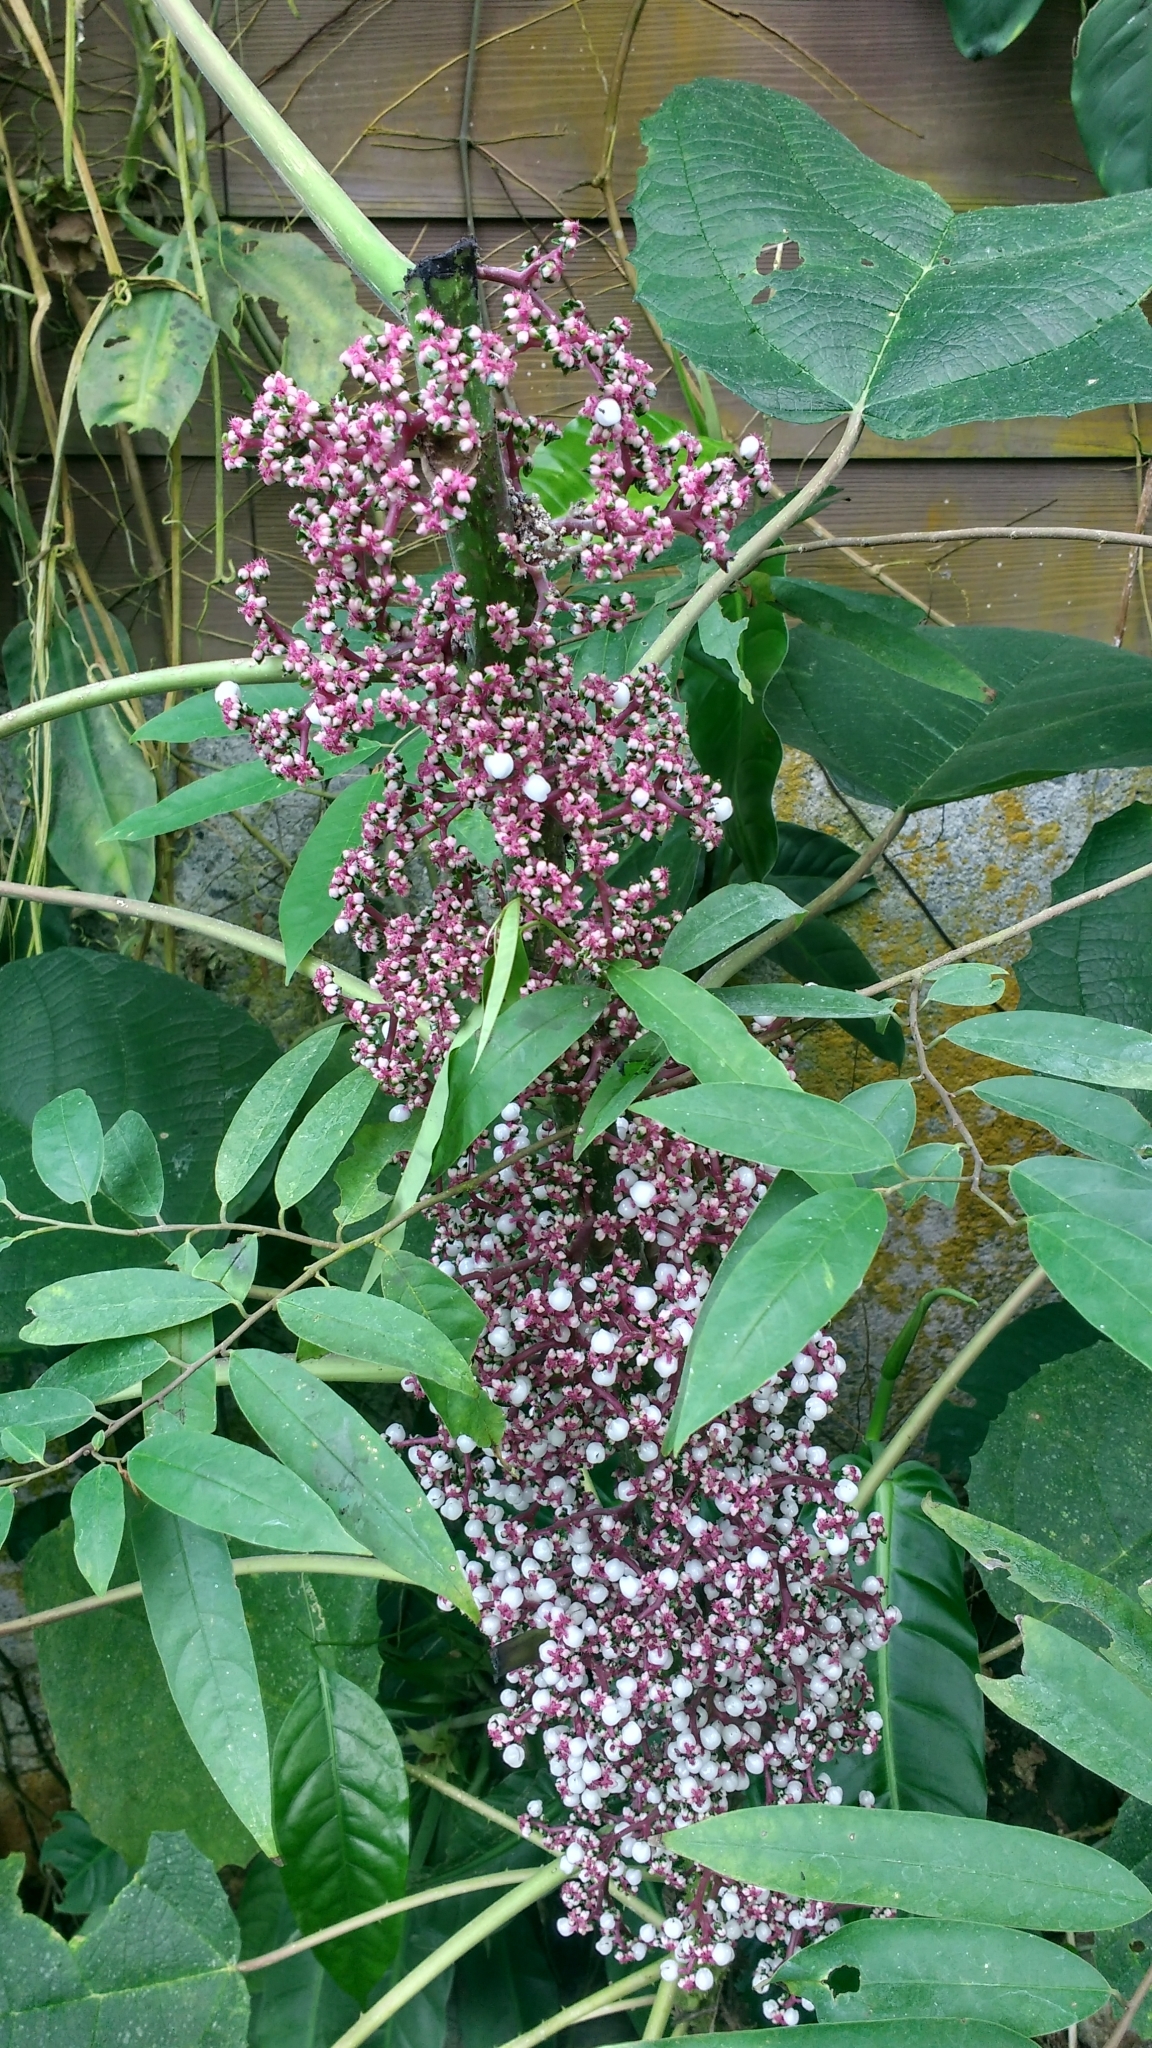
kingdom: Plantae
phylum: Tracheophyta
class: Magnoliopsida
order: Rosales
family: Urticaceae
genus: Urera
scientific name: Urera baccifera
